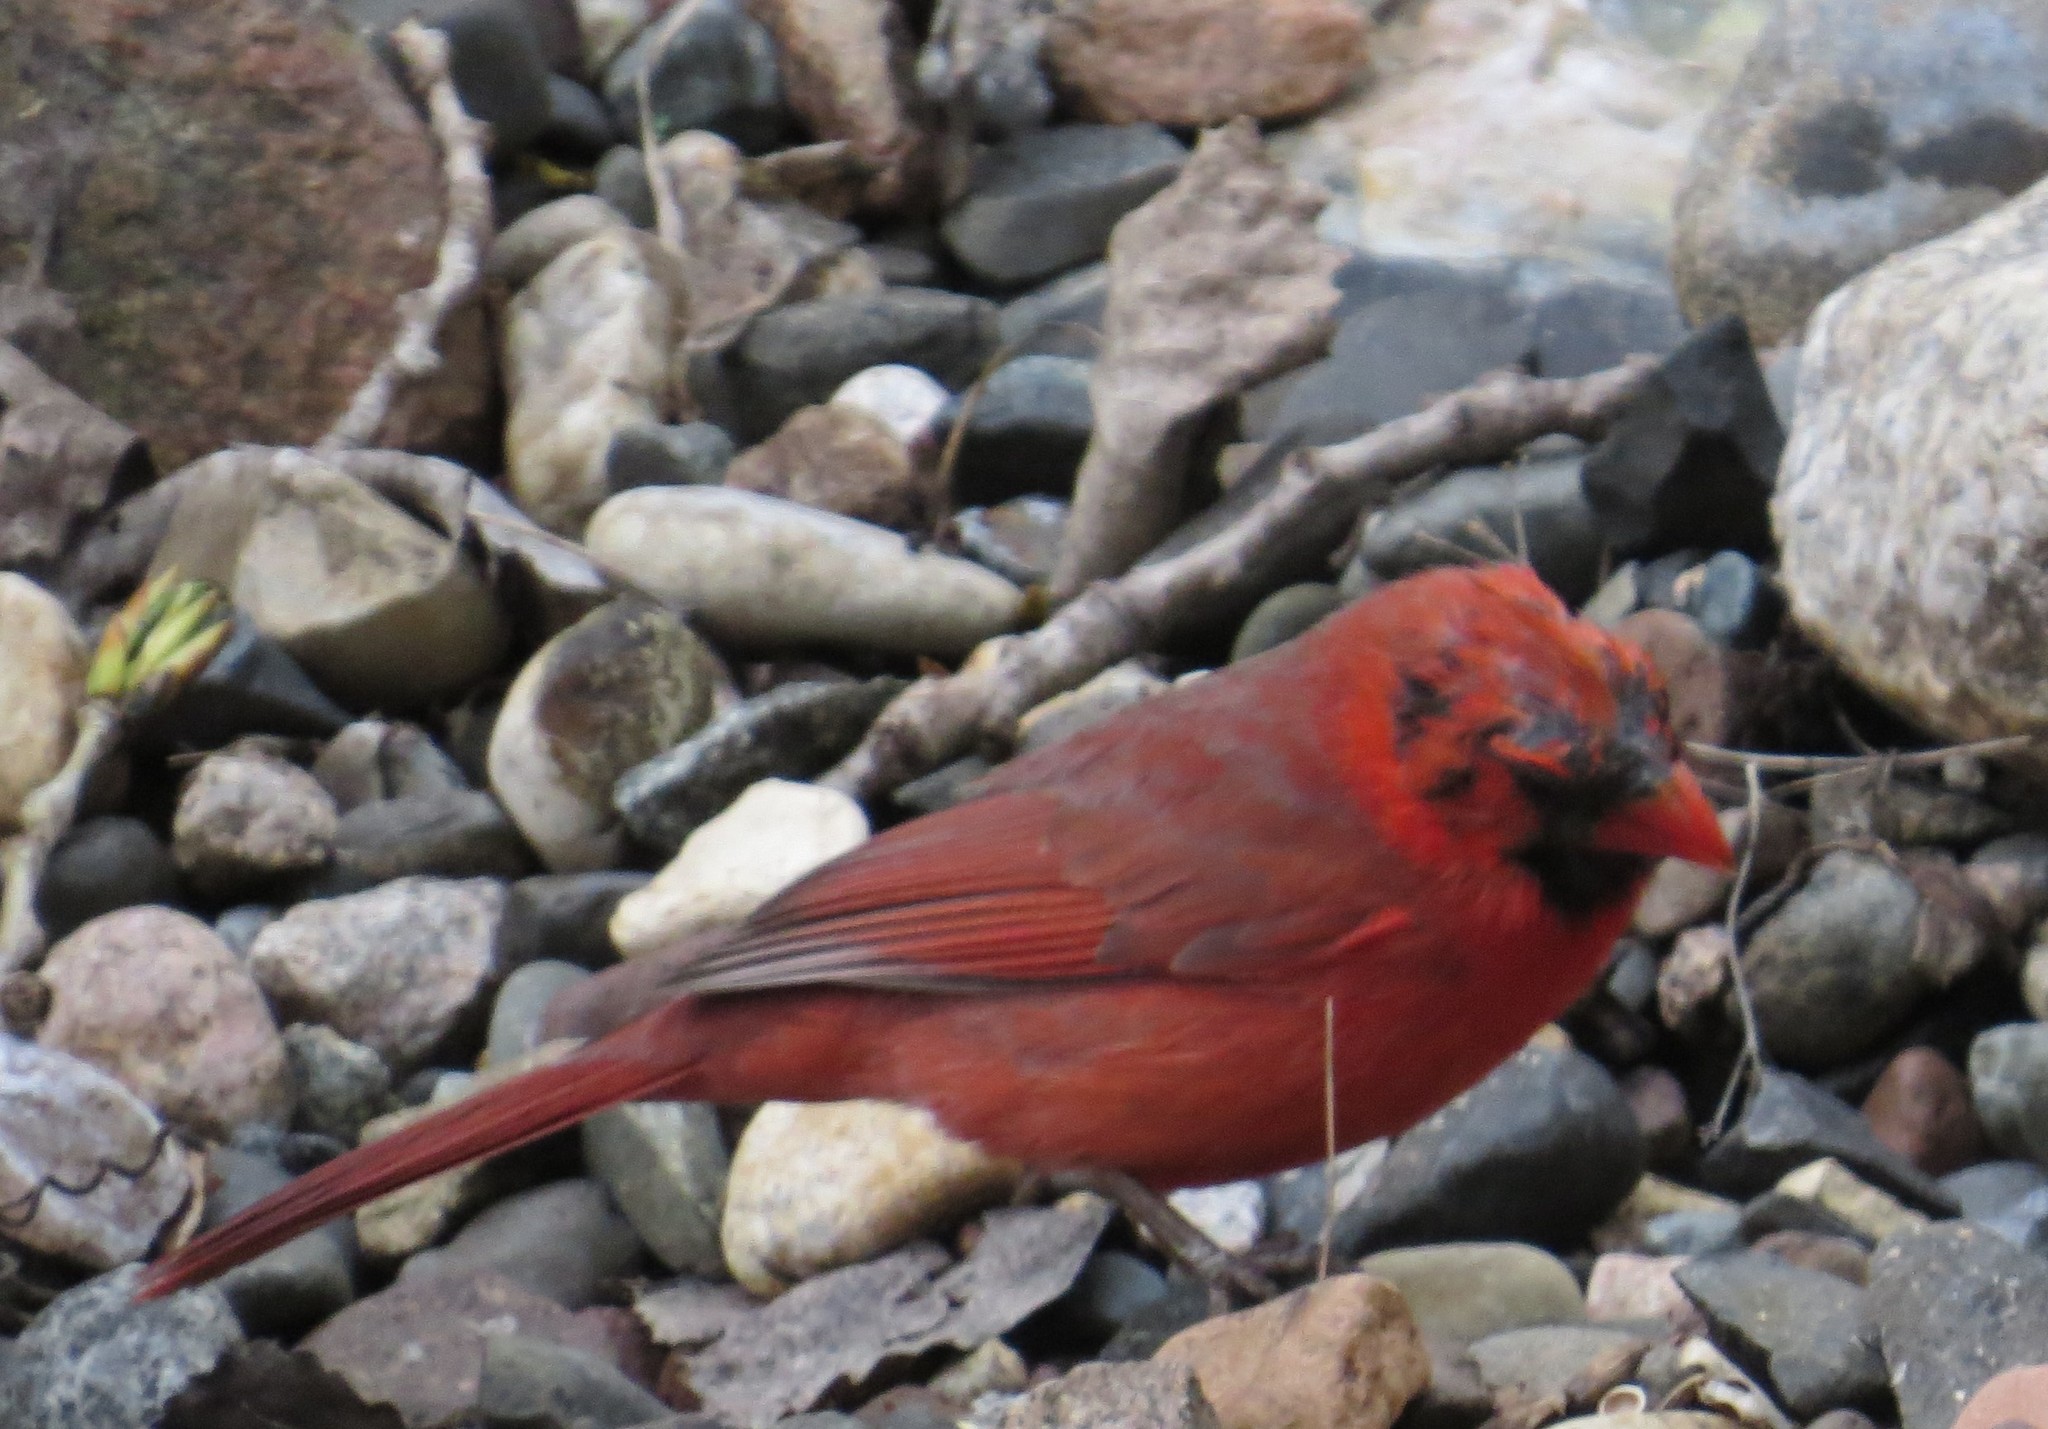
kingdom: Animalia
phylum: Chordata
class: Aves
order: Passeriformes
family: Cardinalidae
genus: Cardinalis
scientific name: Cardinalis cardinalis
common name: Northern cardinal
